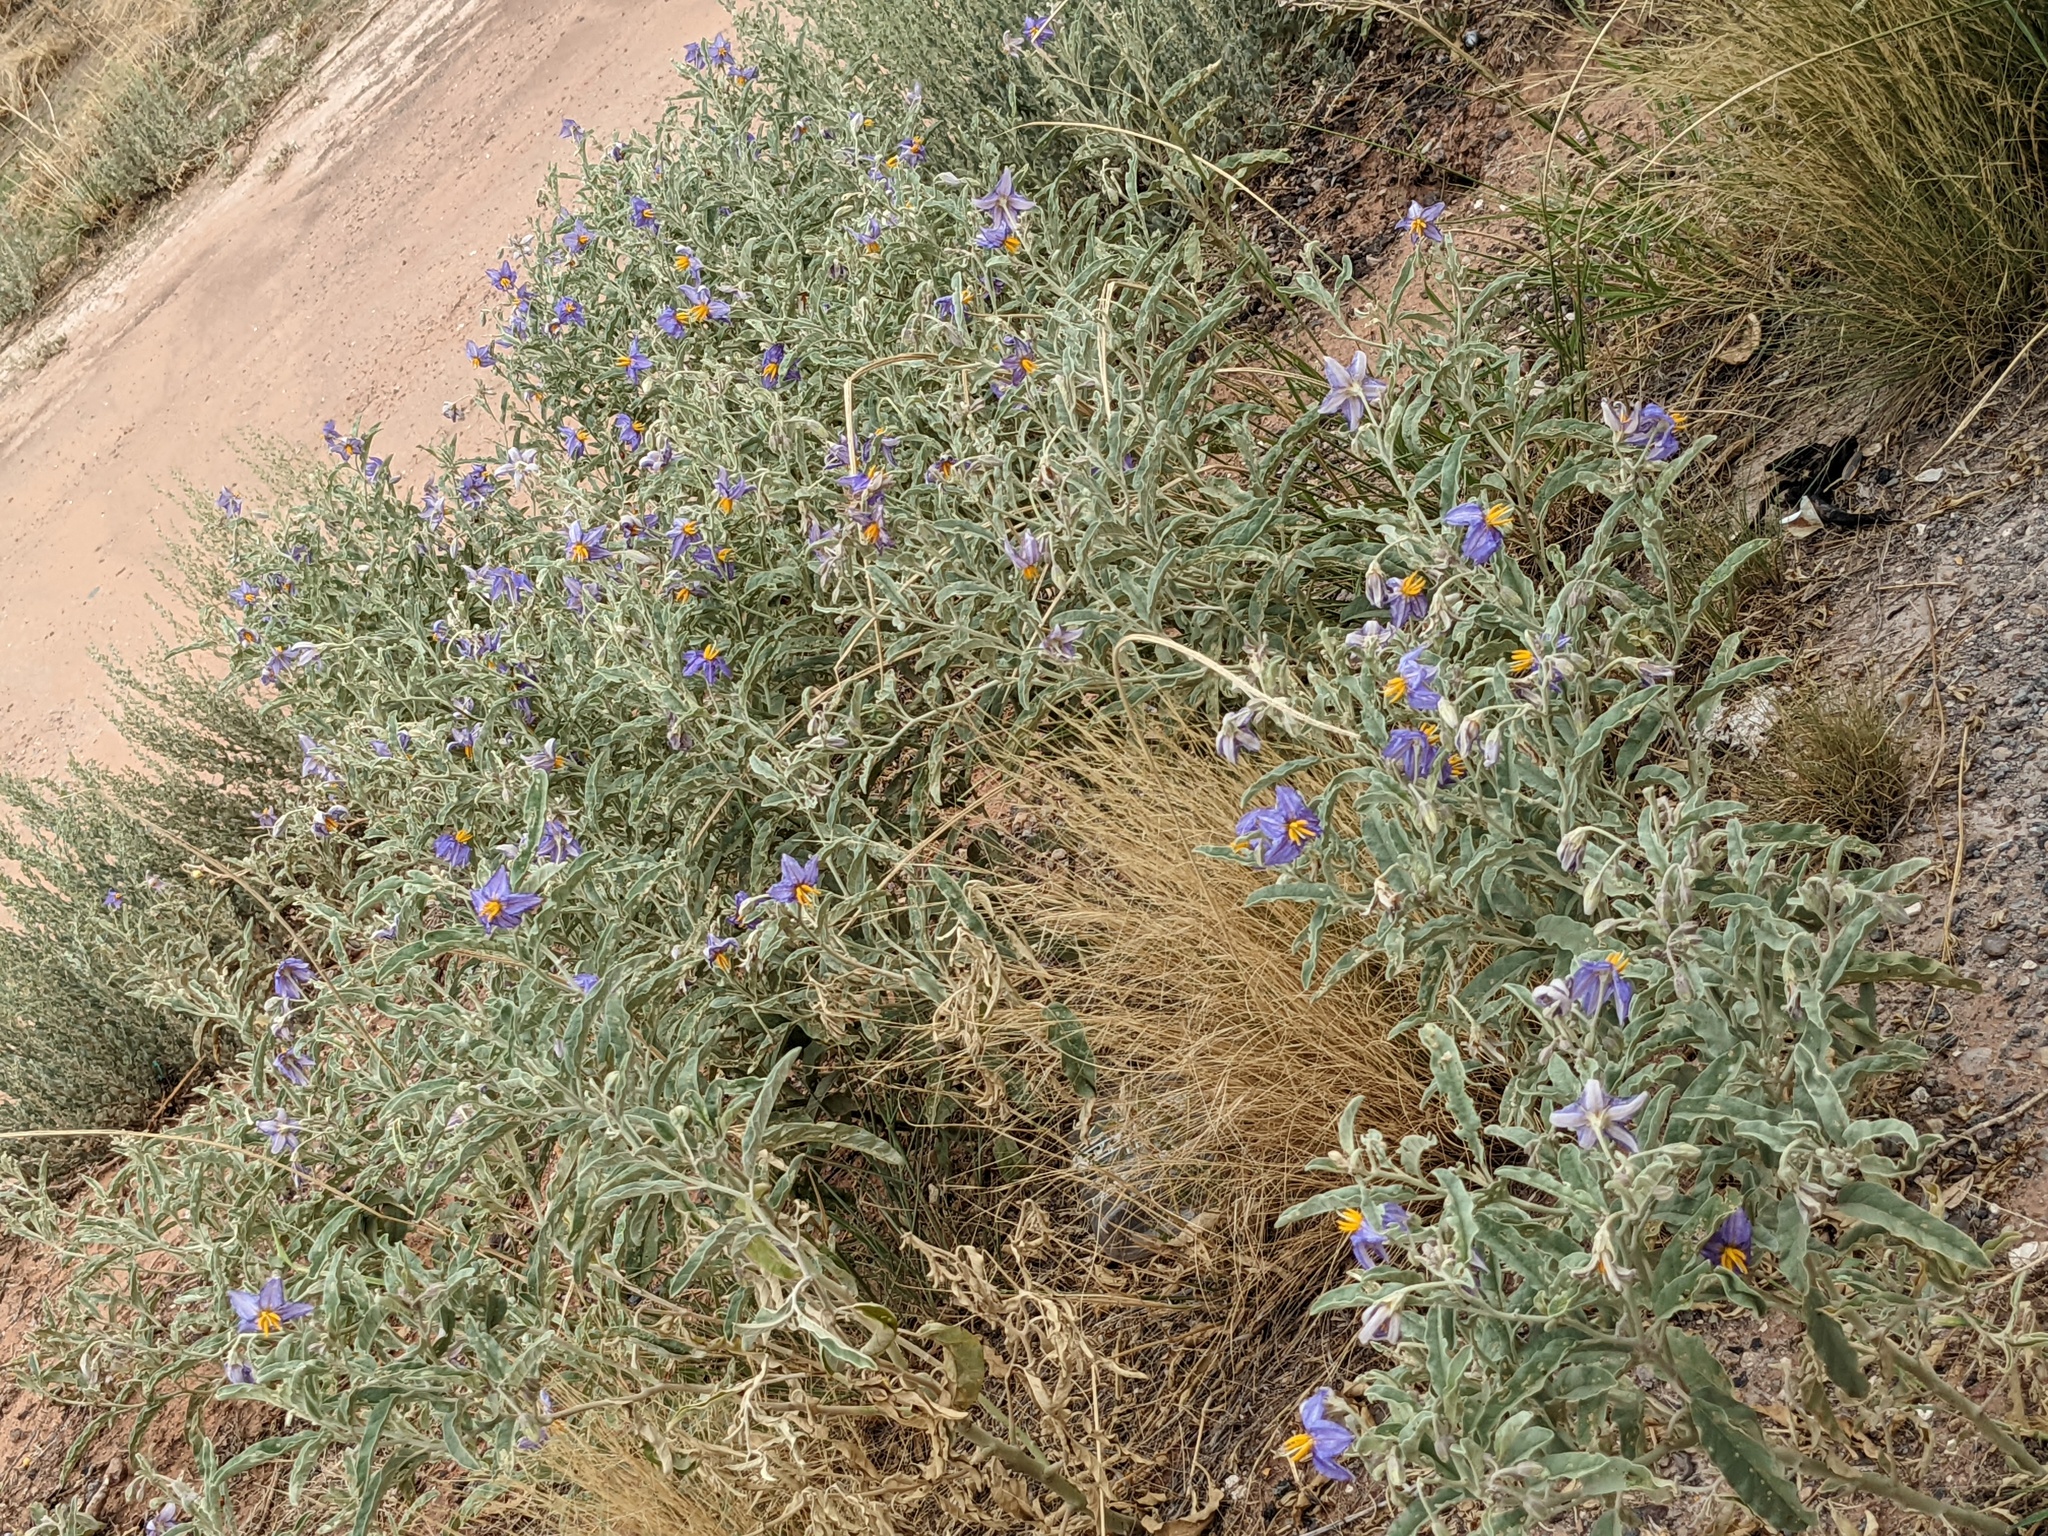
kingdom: Plantae
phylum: Tracheophyta
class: Magnoliopsida
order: Solanales
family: Solanaceae
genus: Solanum
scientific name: Solanum elaeagnifolium
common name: Silverleaf nightshade
